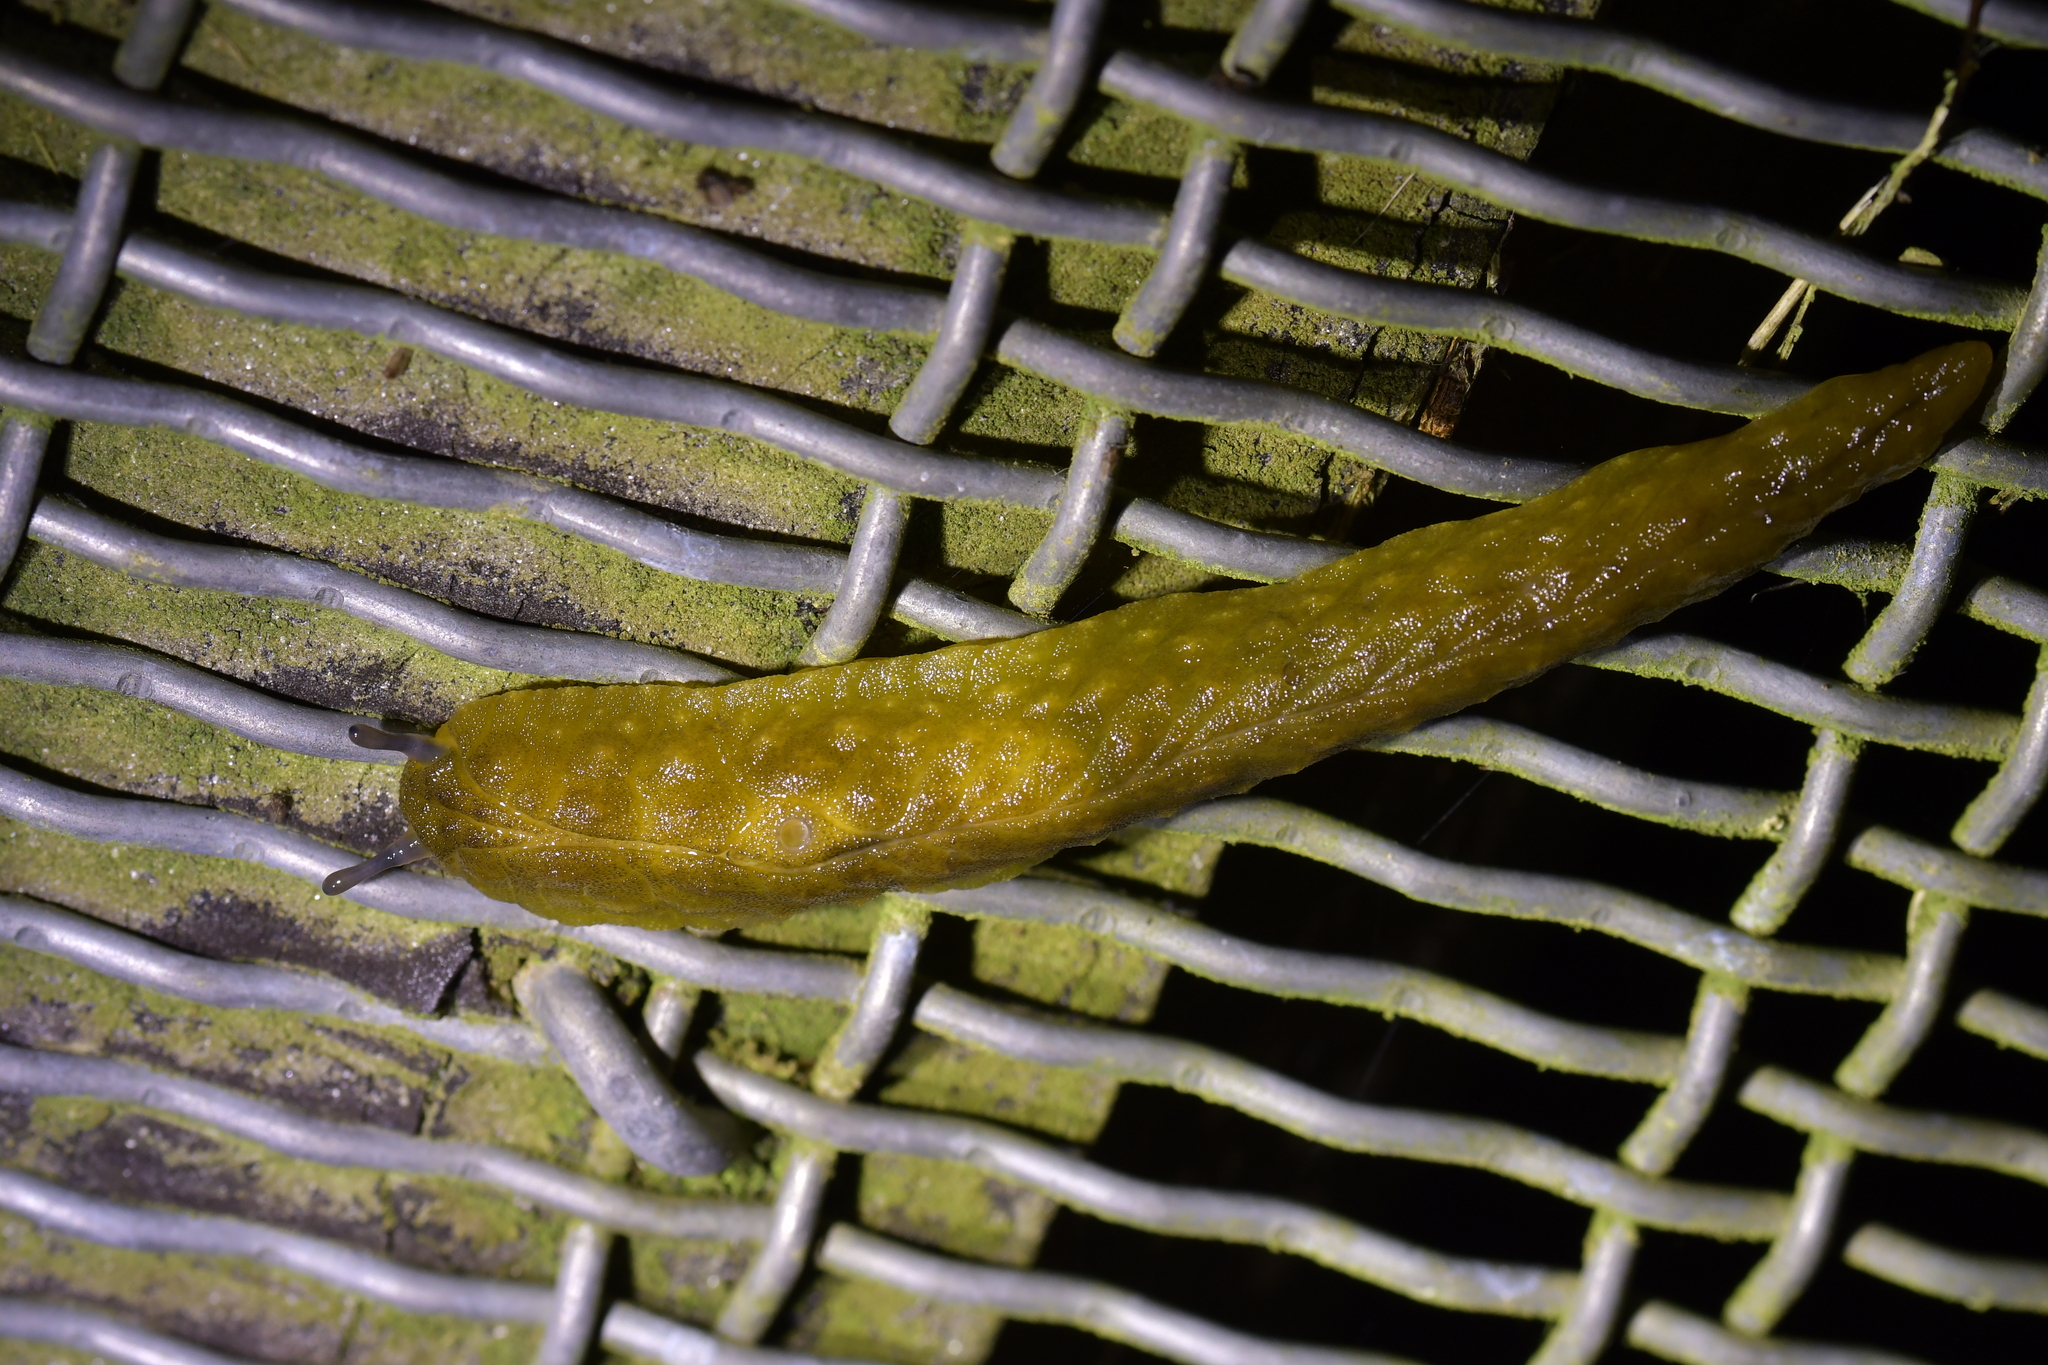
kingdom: Animalia
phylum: Mollusca
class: Gastropoda
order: Stylommatophora
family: Athoracophoridae
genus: Athoracophorus
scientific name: Athoracophorus papillatus
